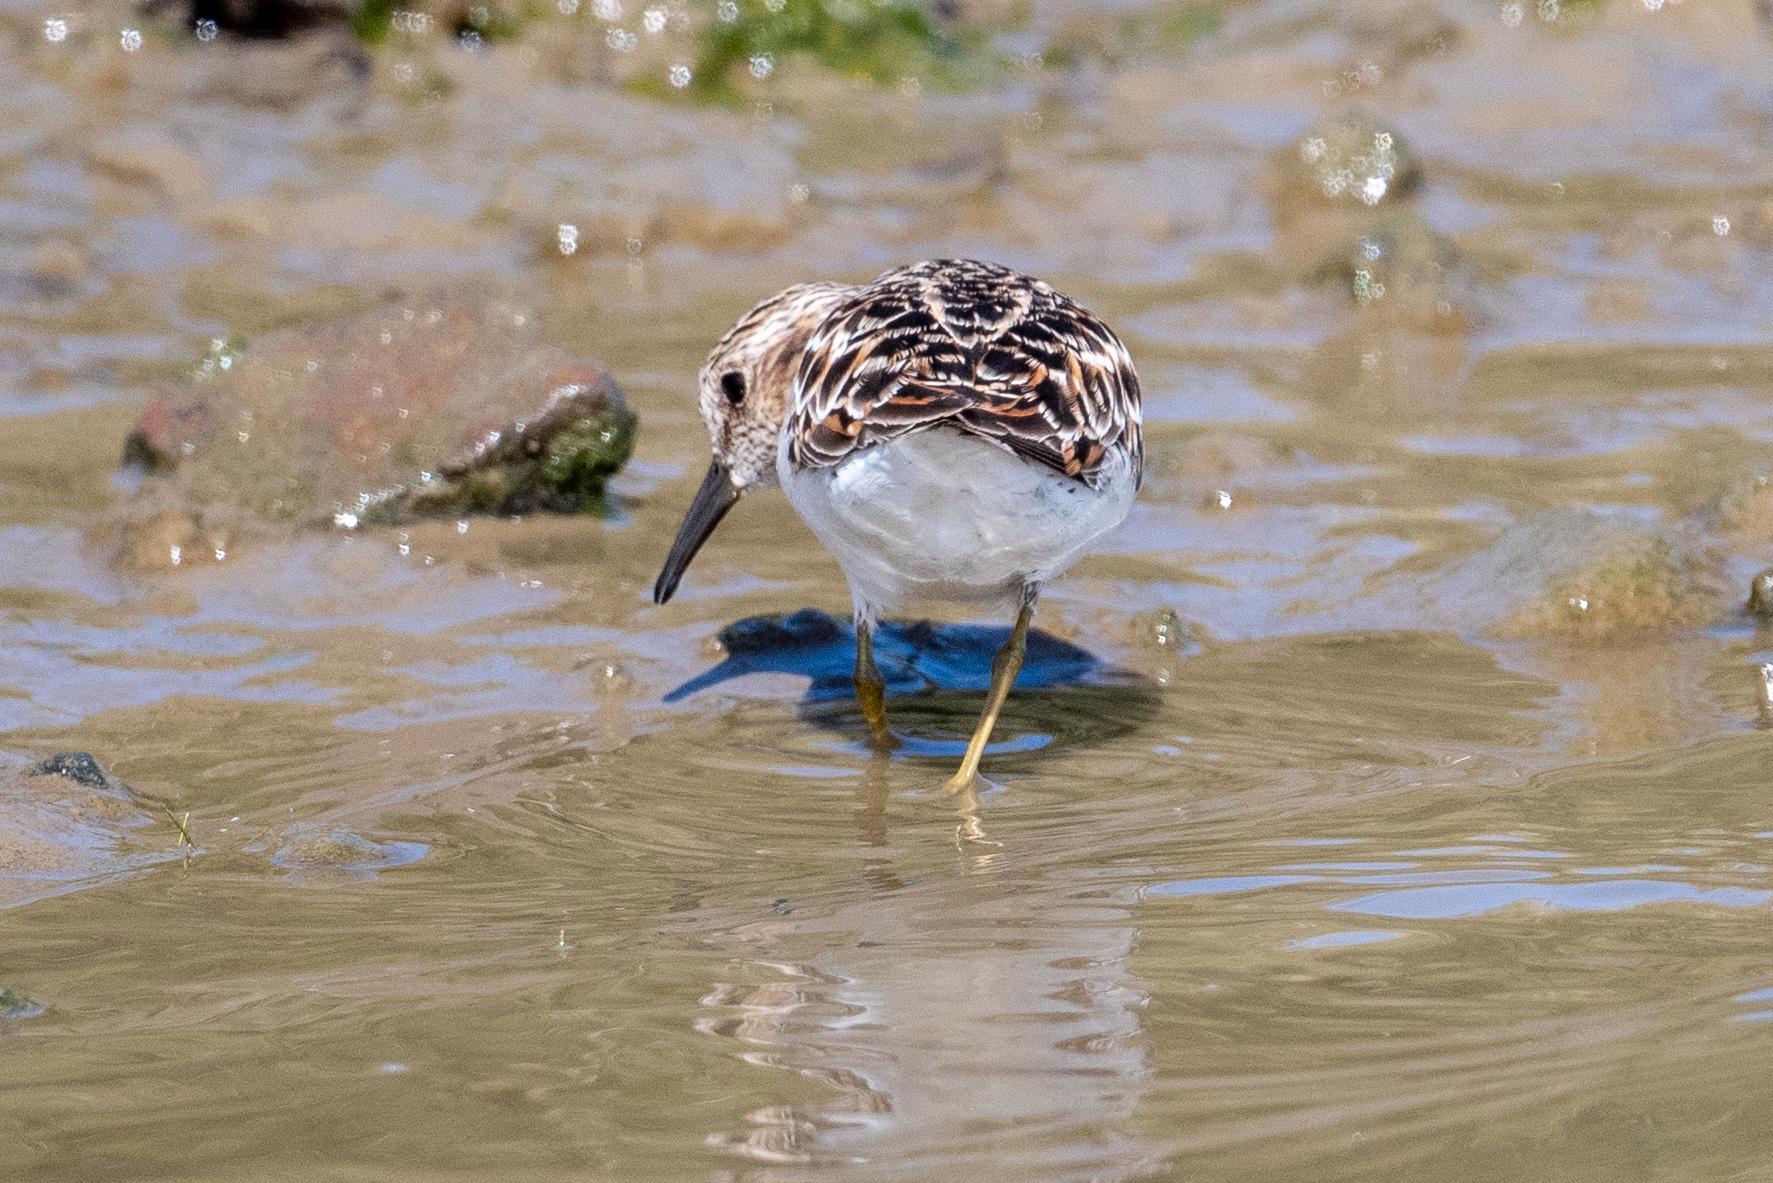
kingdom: Animalia
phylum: Chordata
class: Aves
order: Charadriiformes
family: Scolopacidae
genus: Calidris
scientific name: Calidris minutilla
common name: Least sandpiper
